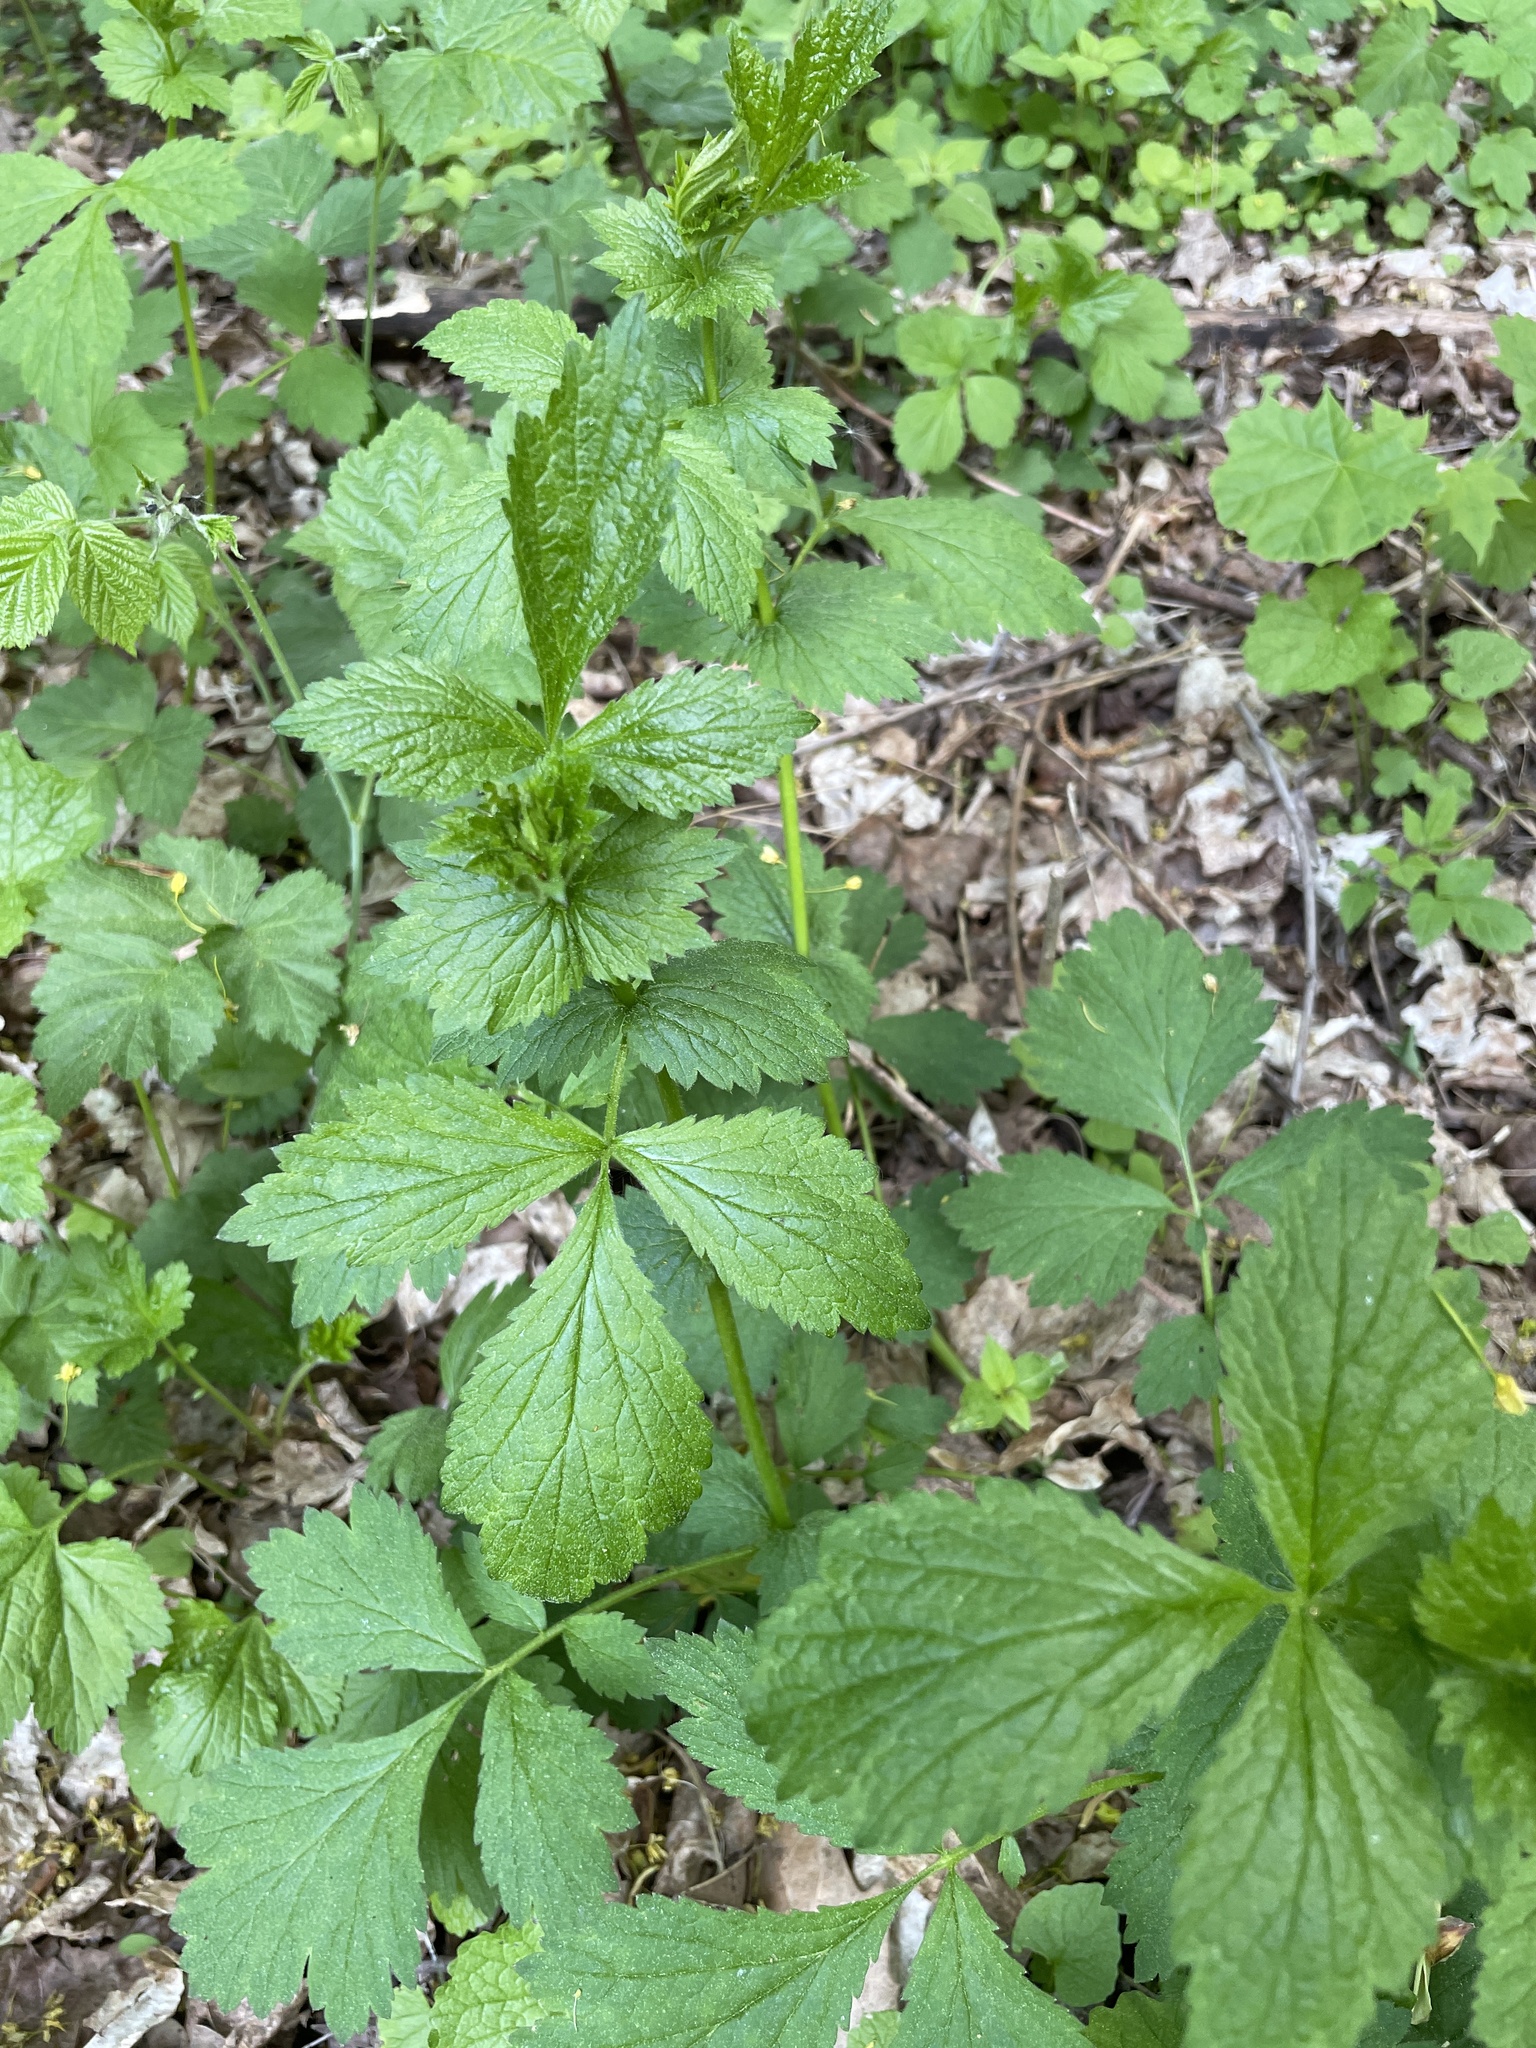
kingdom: Plantae
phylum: Tracheophyta
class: Magnoliopsida
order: Rosales
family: Rosaceae
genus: Geum
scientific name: Geum urbanum
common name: Wood avens
